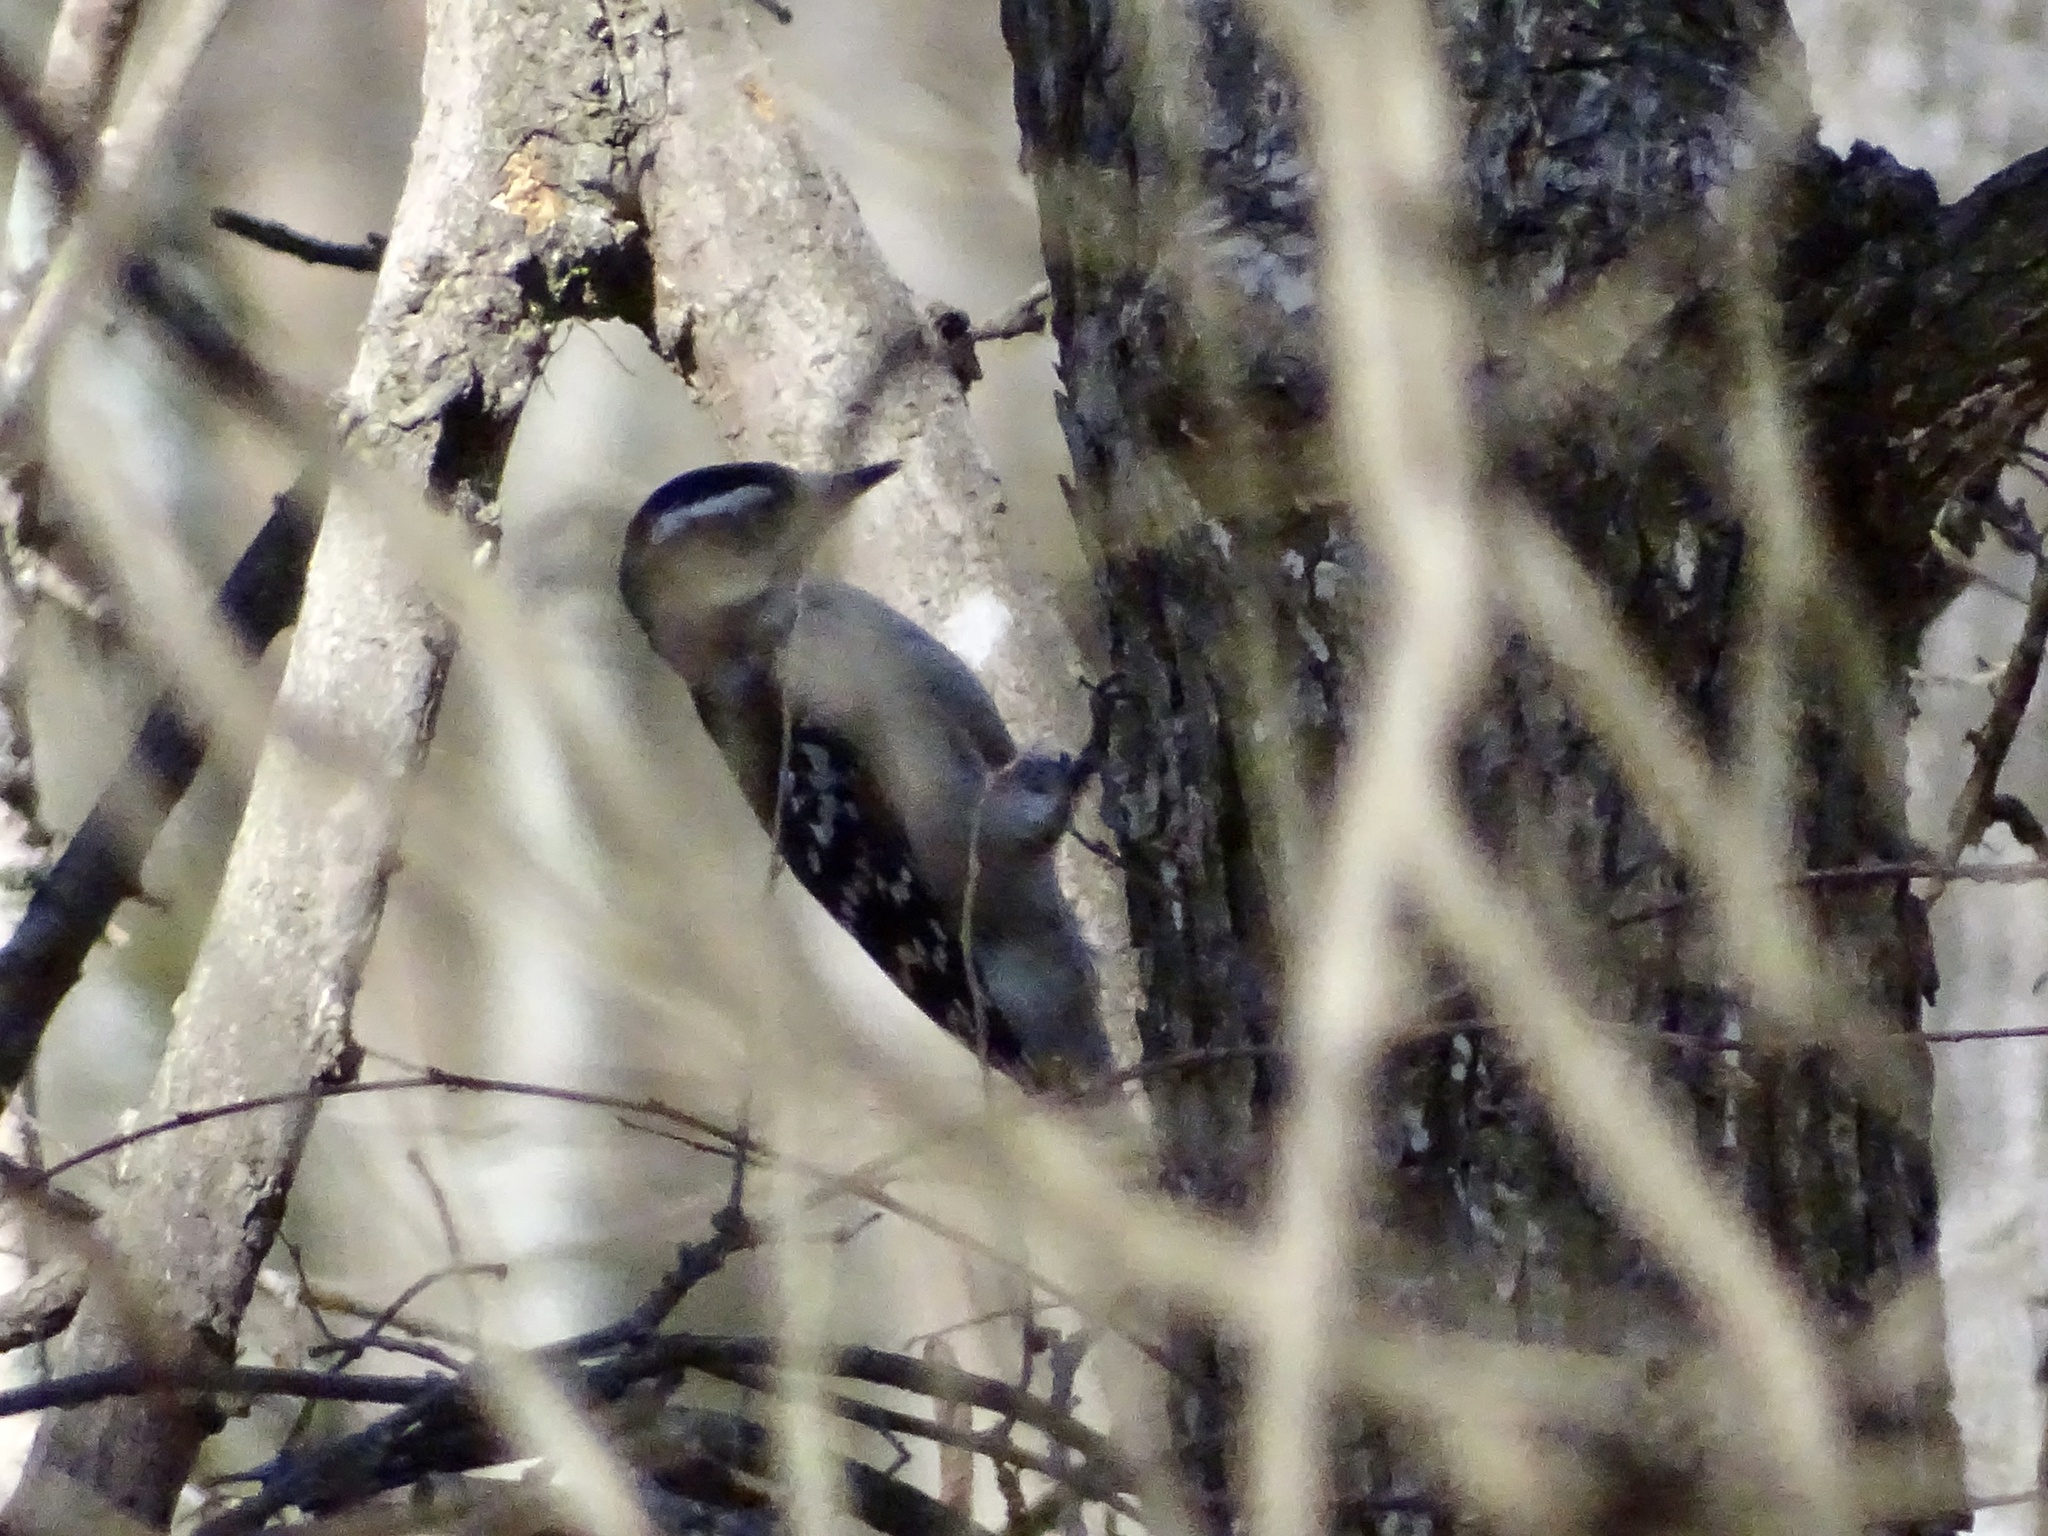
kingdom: Animalia
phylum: Chordata
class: Aves
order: Piciformes
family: Picidae
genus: Dryobates
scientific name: Dryobates pubescens
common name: Downy woodpecker
